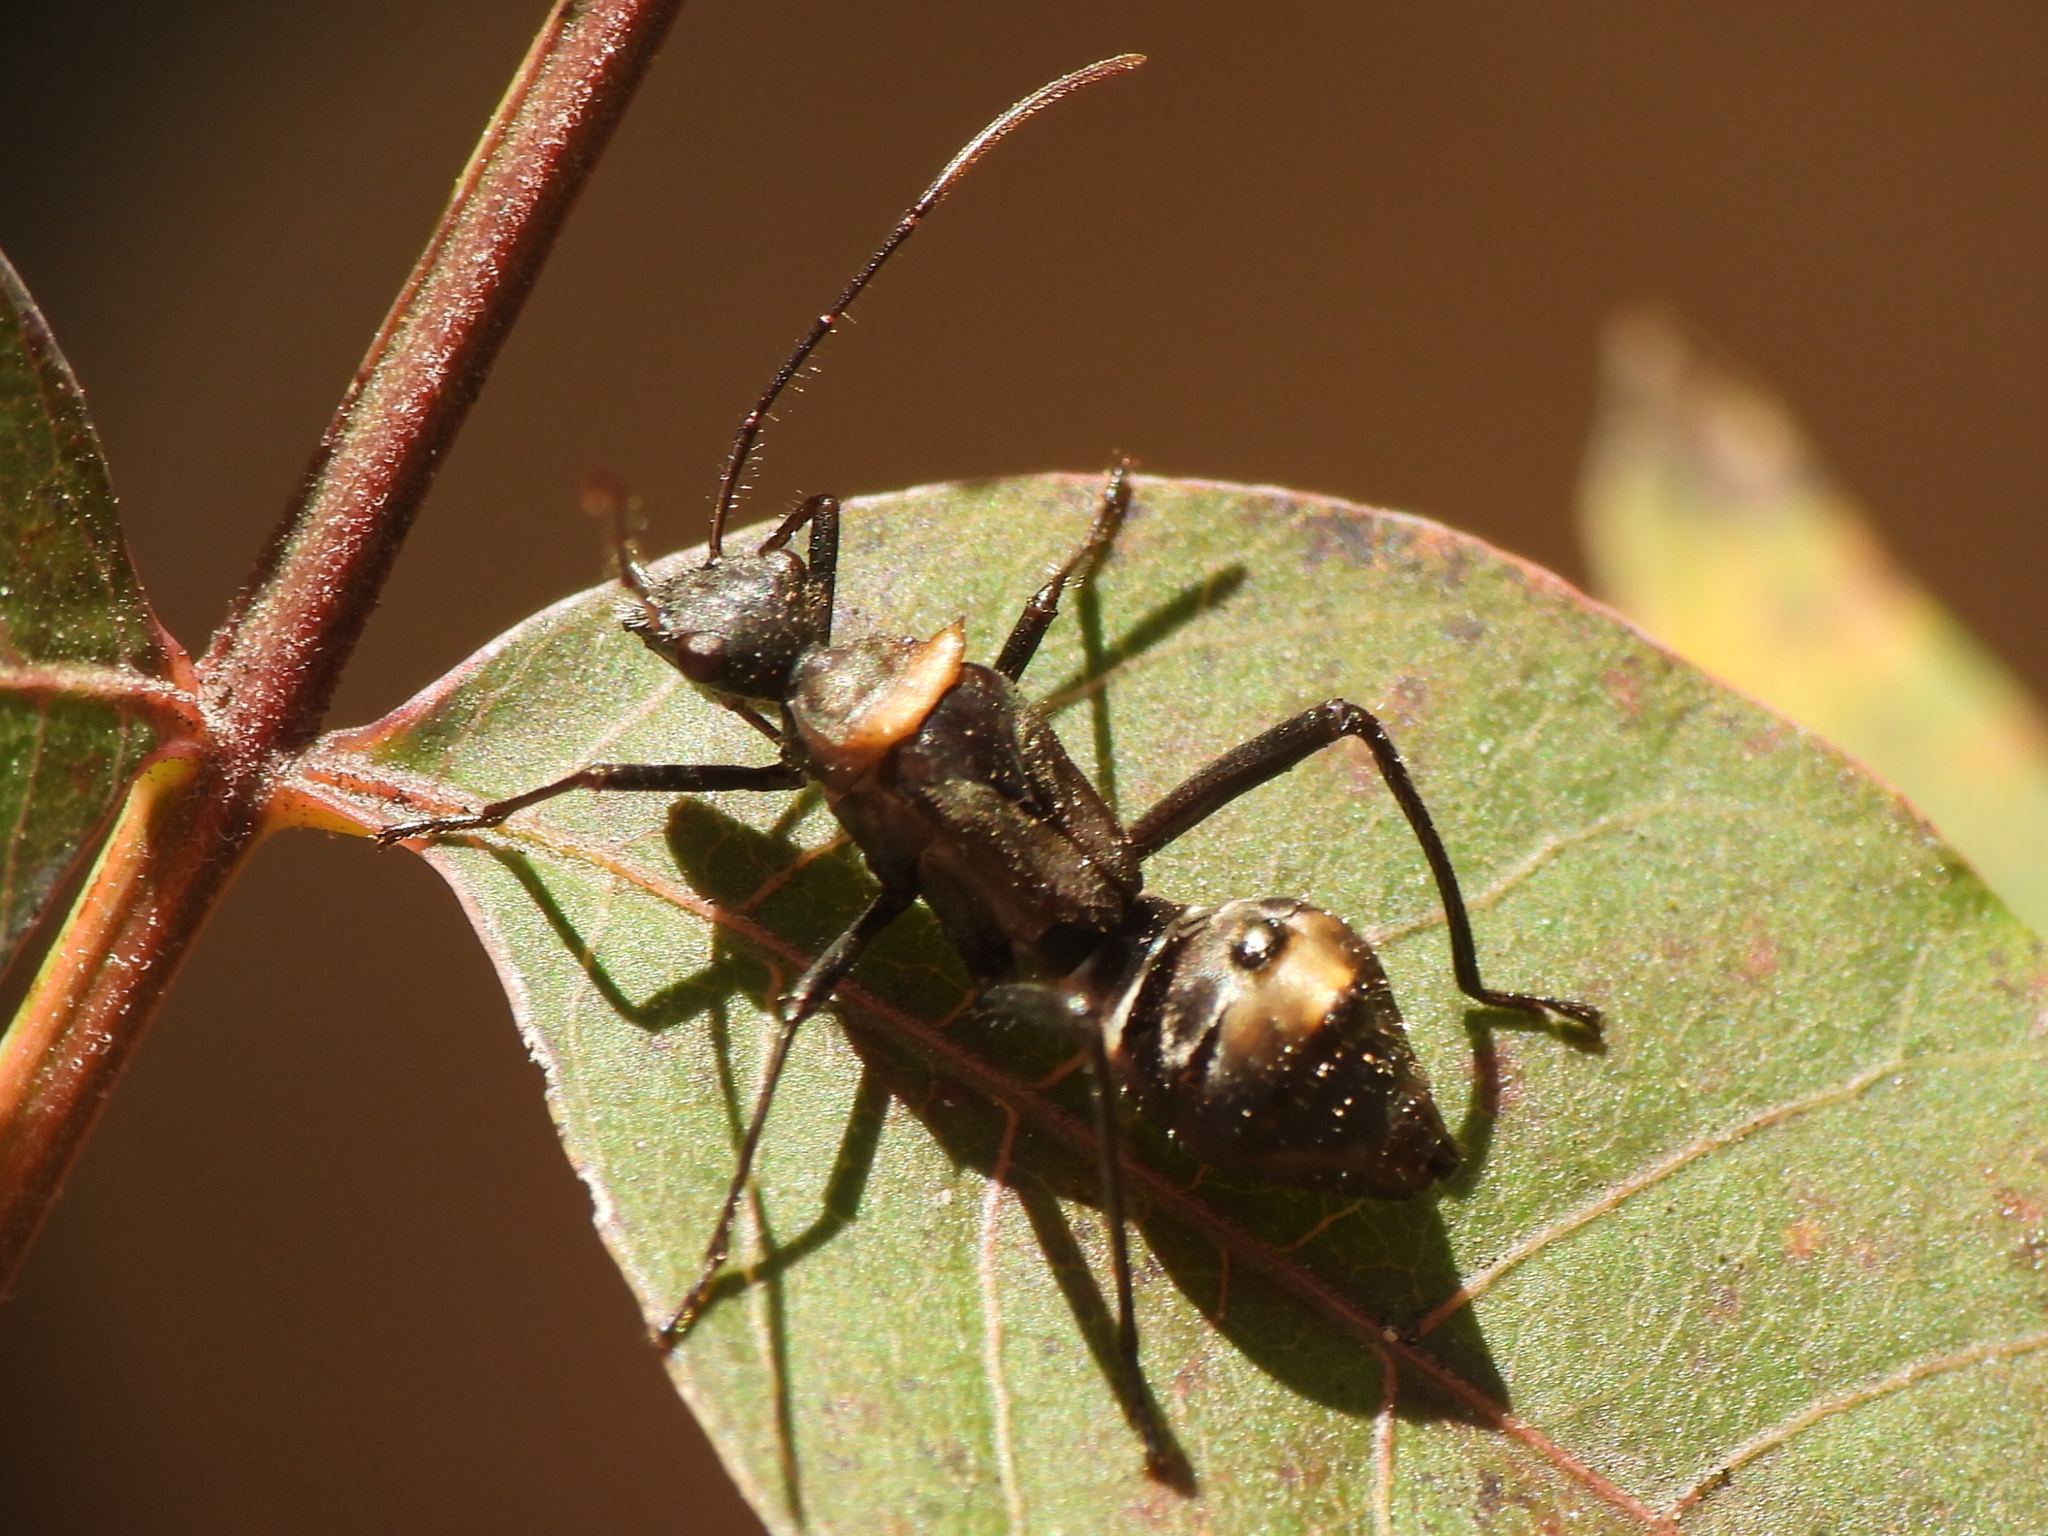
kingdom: Animalia
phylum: Arthropoda
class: Insecta
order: Hemiptera
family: Alydidae
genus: Hyalymenus
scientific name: Hyalymenus tarsatus
